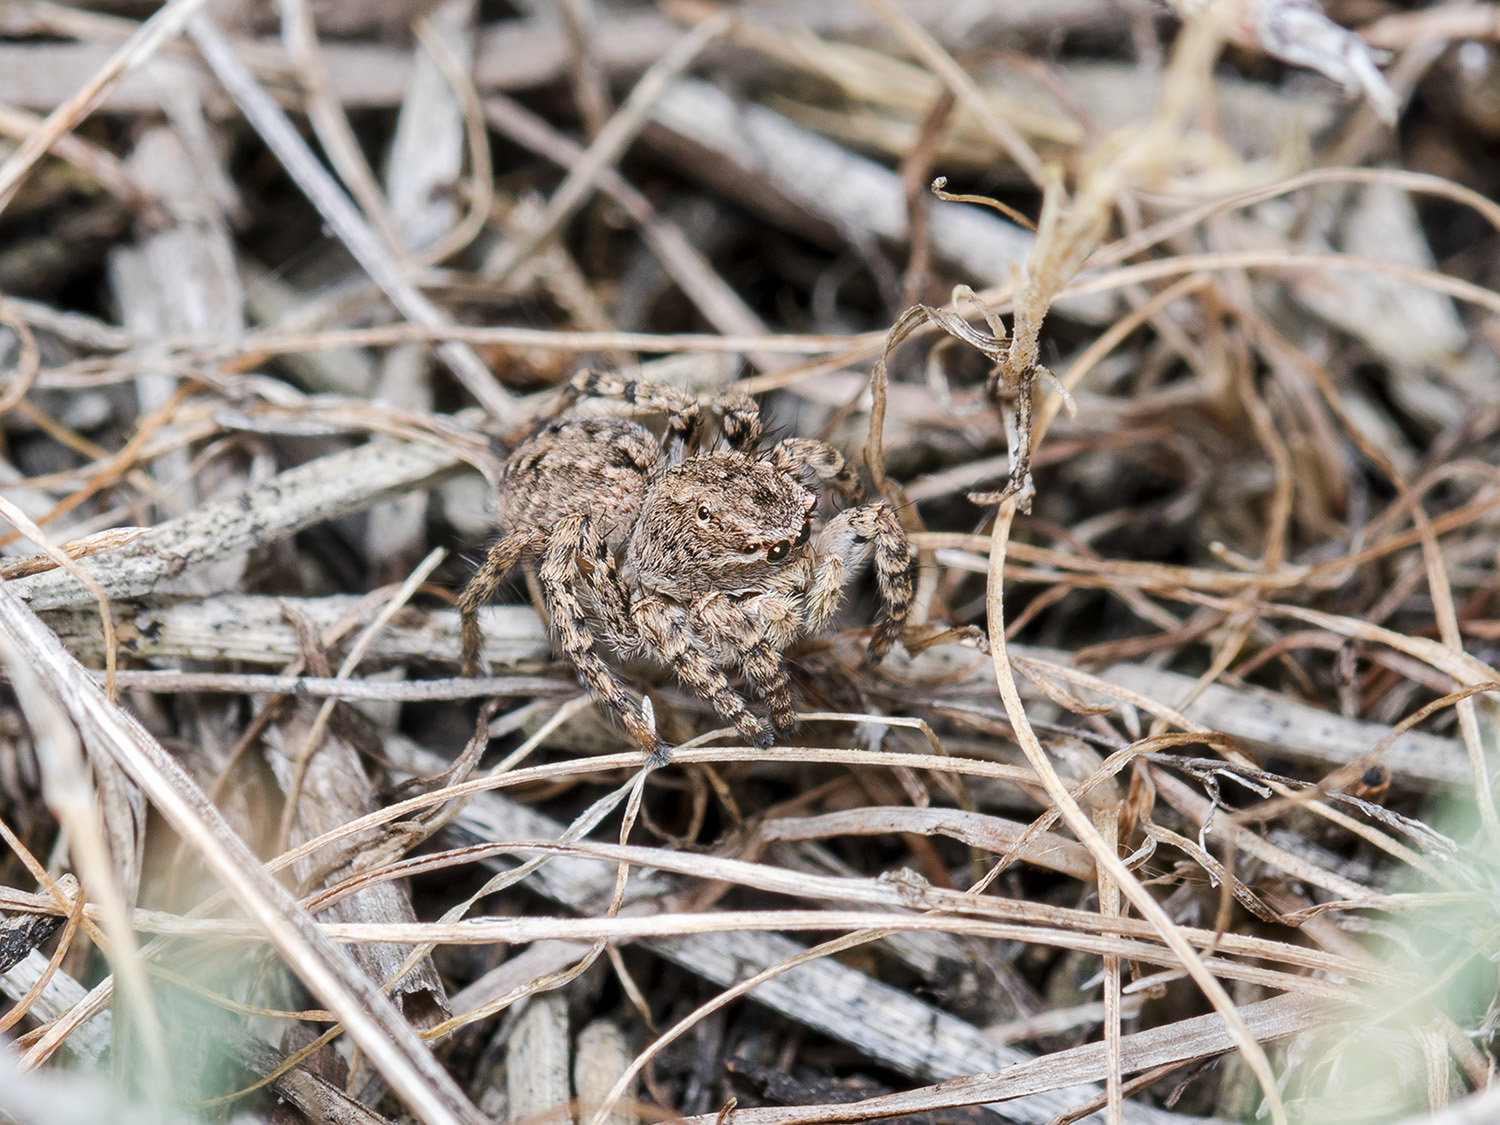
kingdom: Animalia
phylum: Arthropoda
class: Arachnida
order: Araneae
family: Salticidae
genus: Aelurillus
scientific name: Aelurillus v-insignitus
